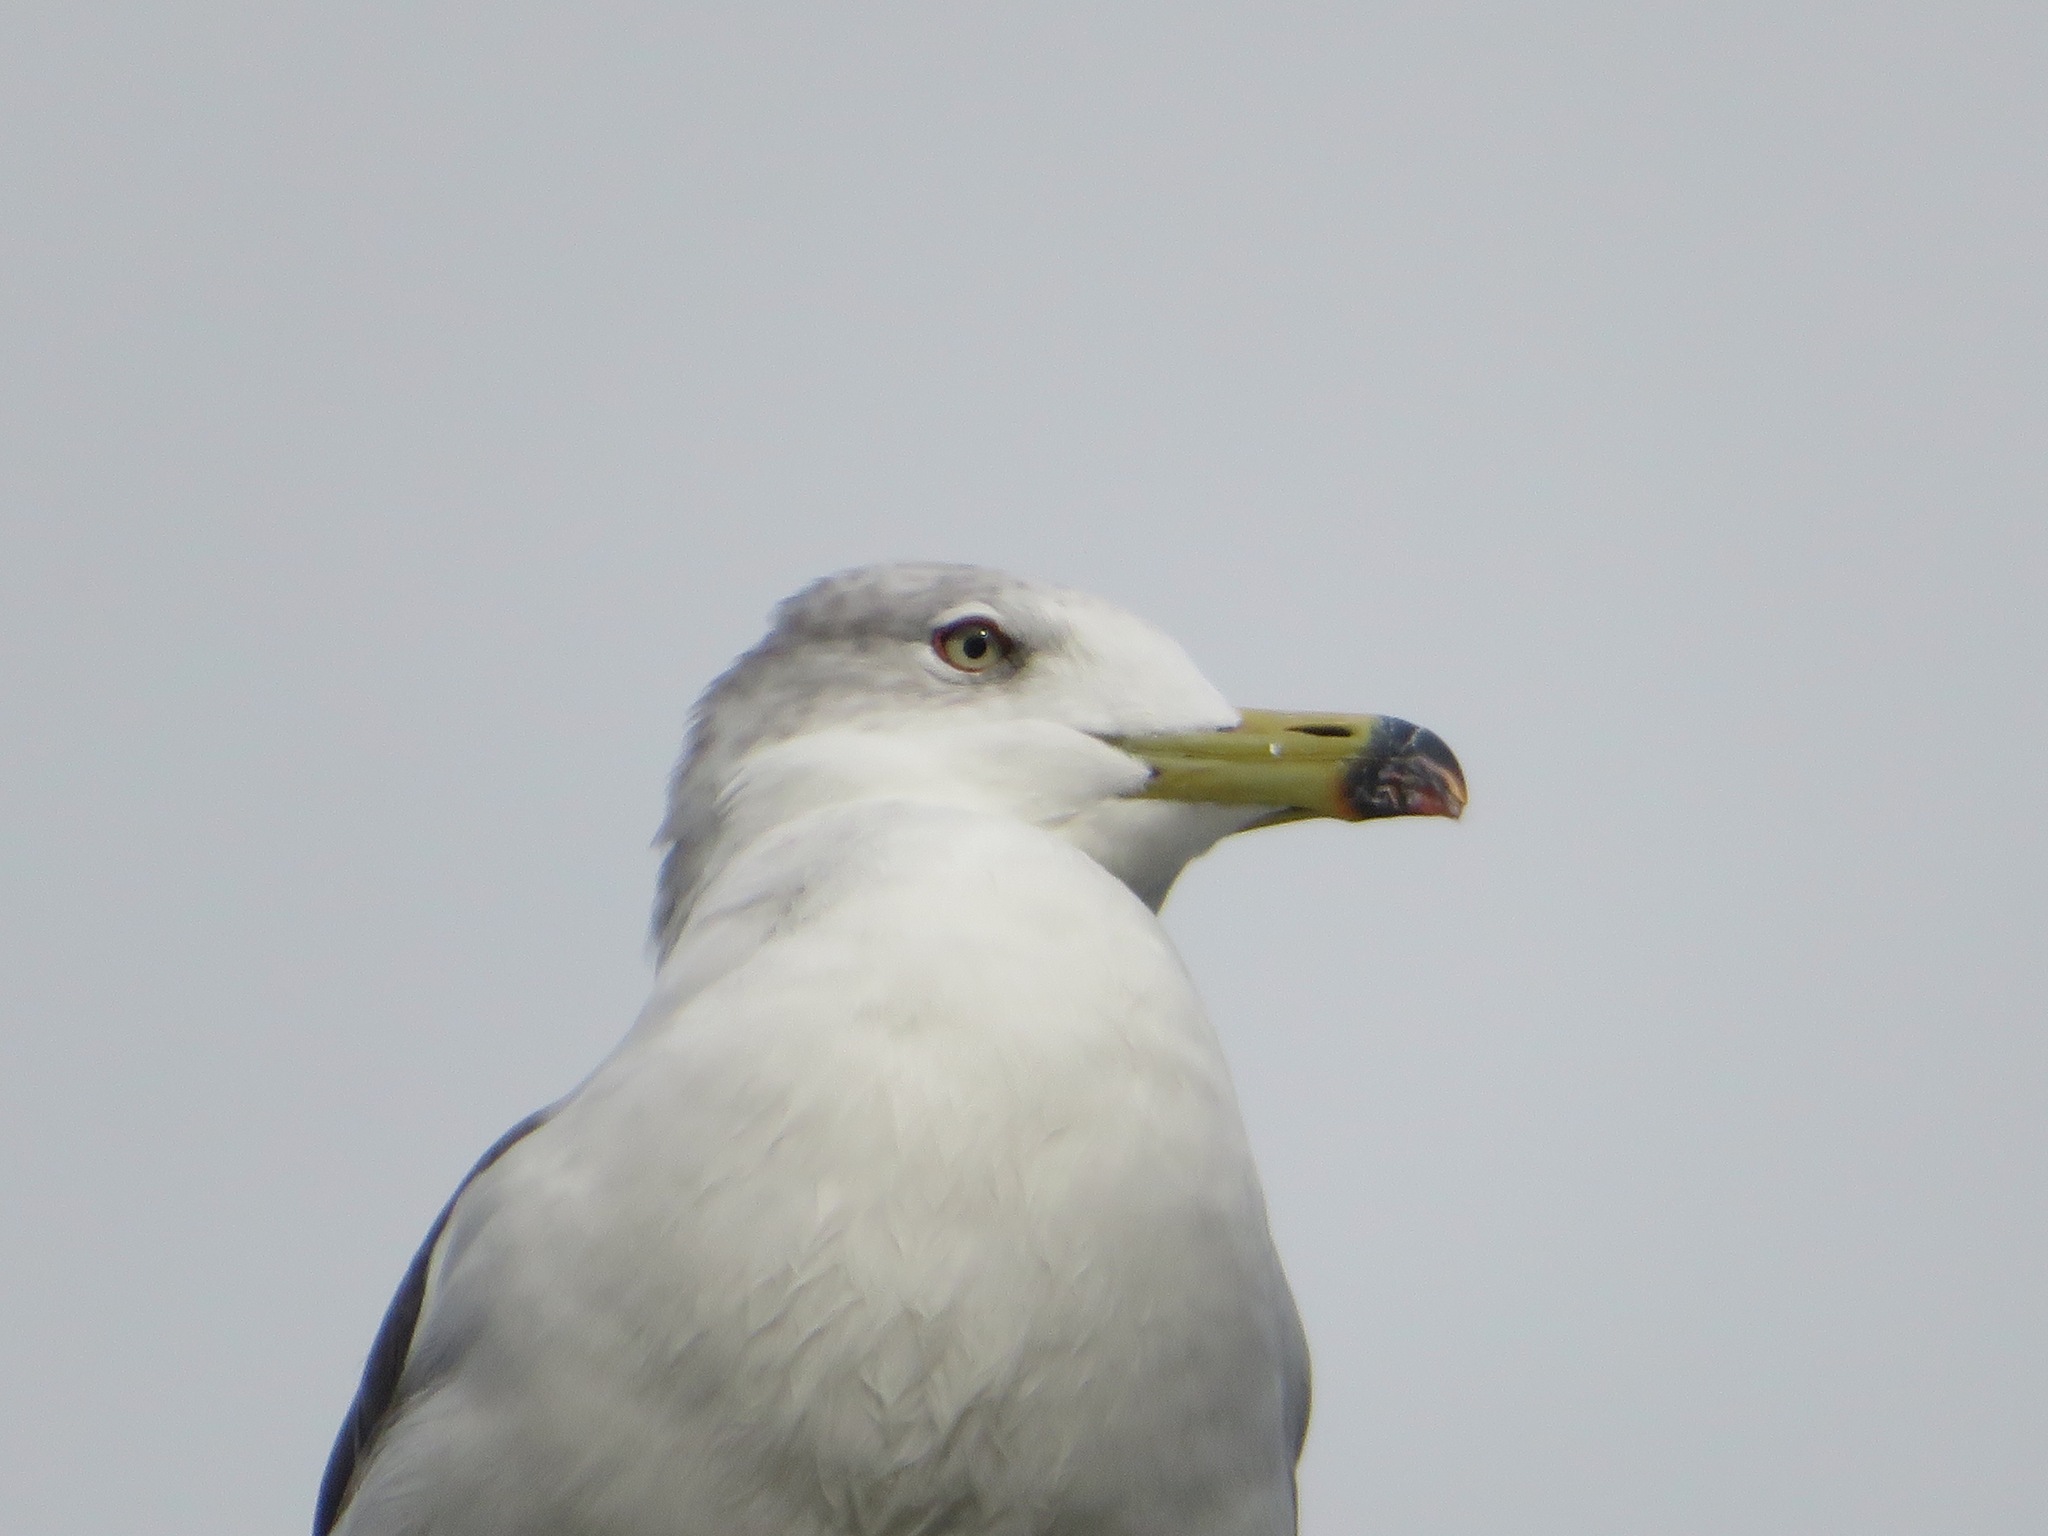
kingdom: Animalia
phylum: Chordata
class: Aves
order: Charadriiformes
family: Laridae
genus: Larus
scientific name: Larus crassirostris
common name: Black-tailed gull
